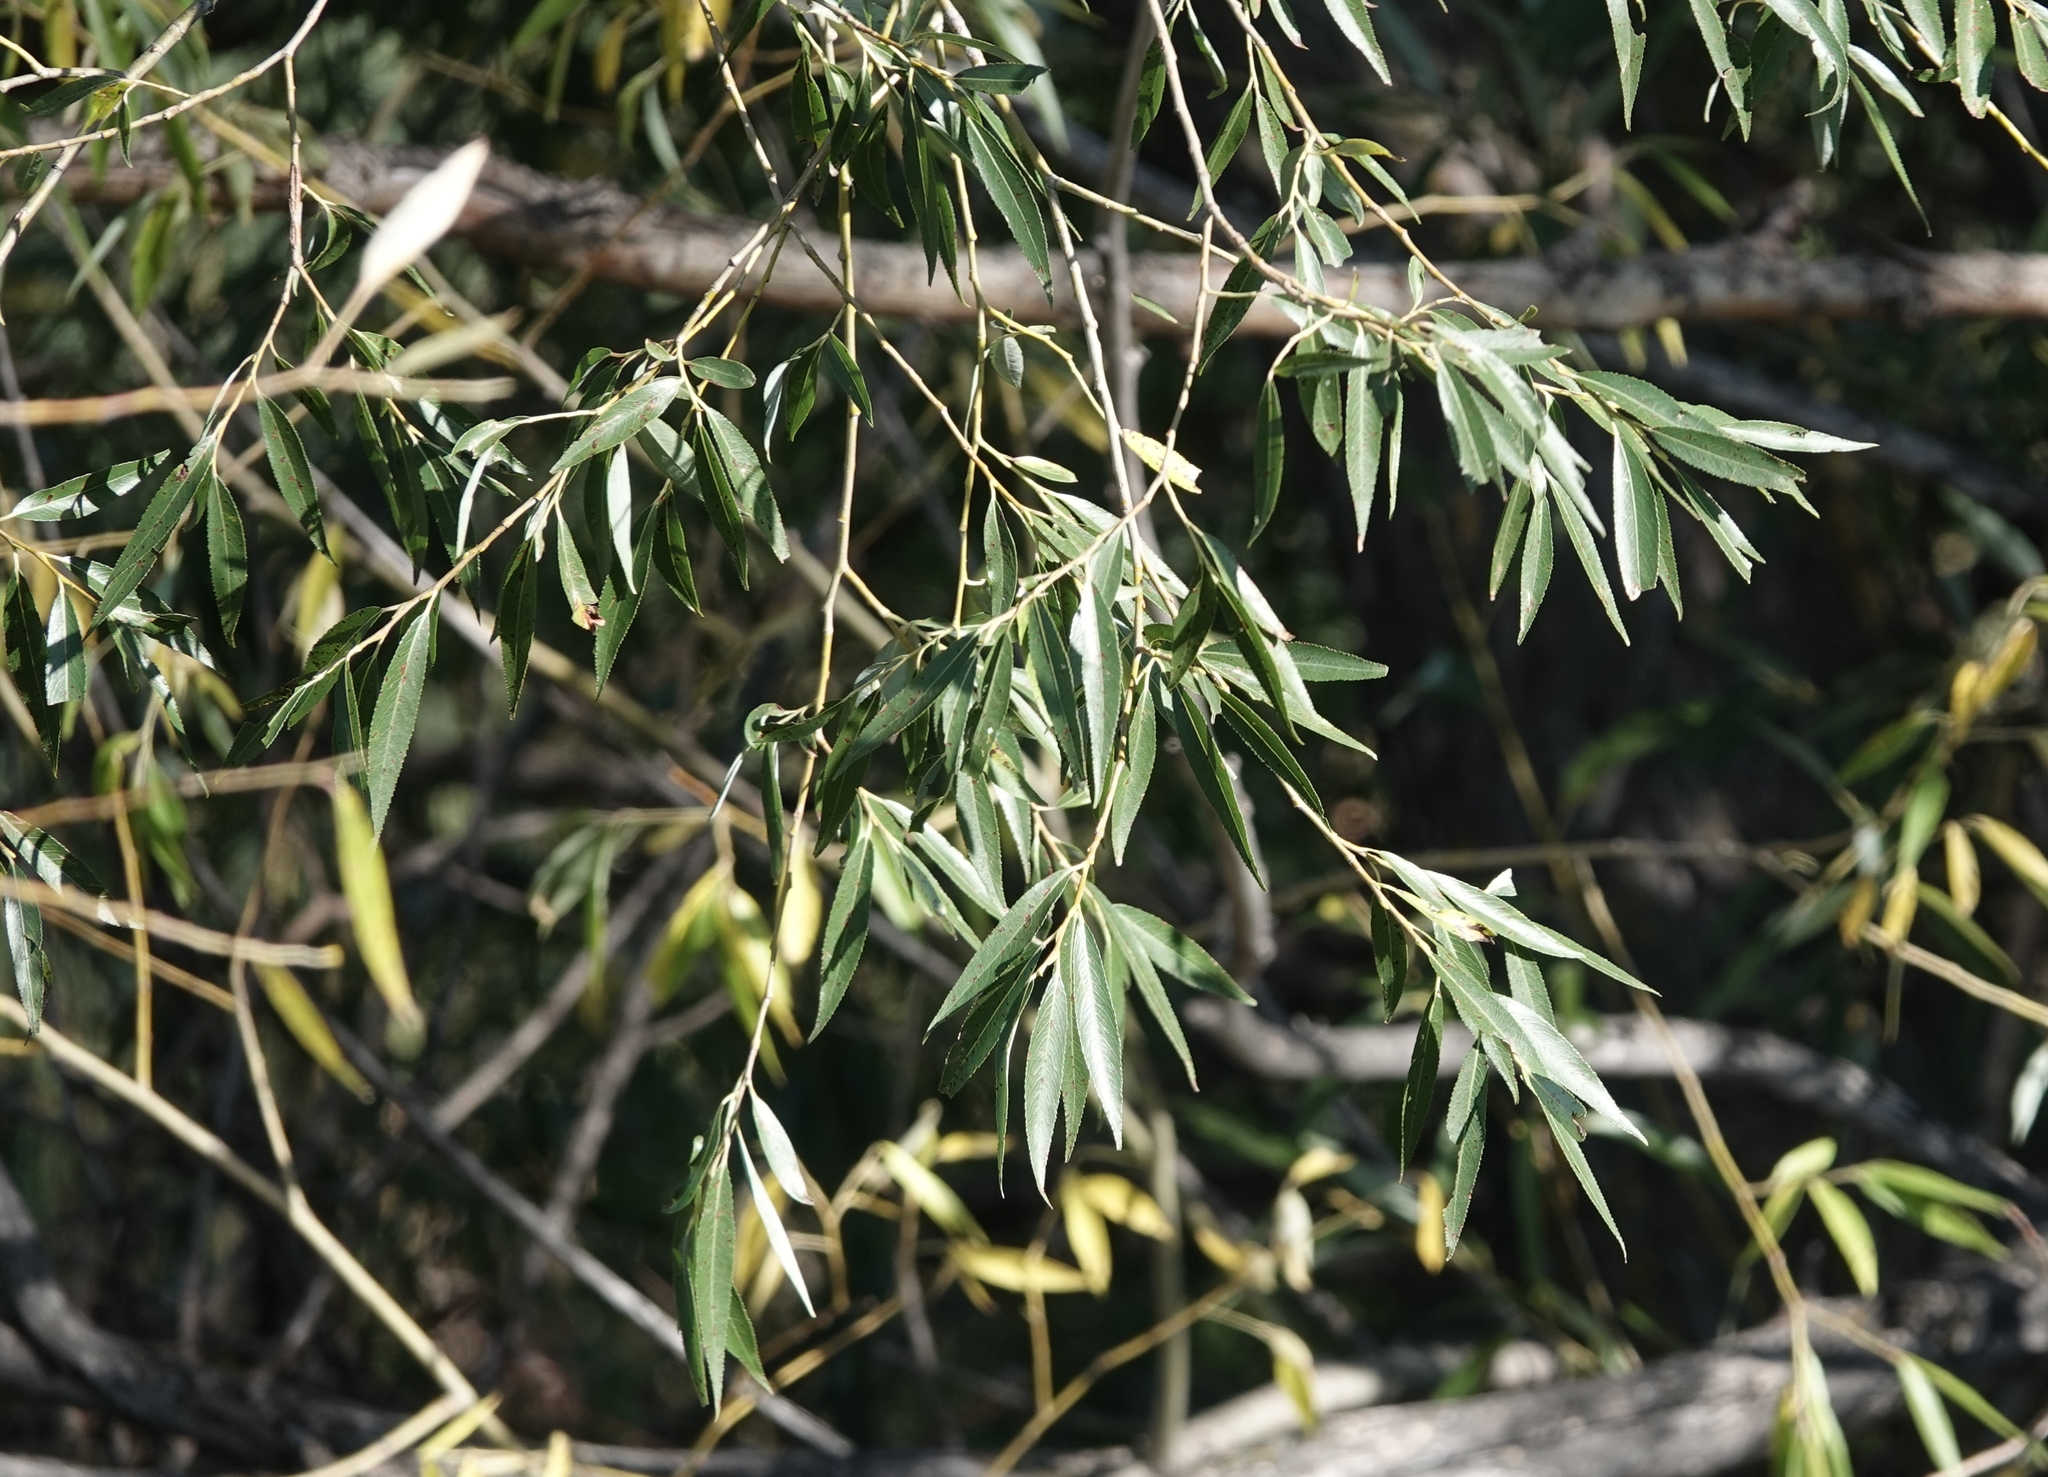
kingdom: Plantae
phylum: Tracheophyta
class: Magnoliopsida
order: Malpighiales
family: Salicaceae
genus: Salix
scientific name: Salix amygdaloides
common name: Peach leaf willow
